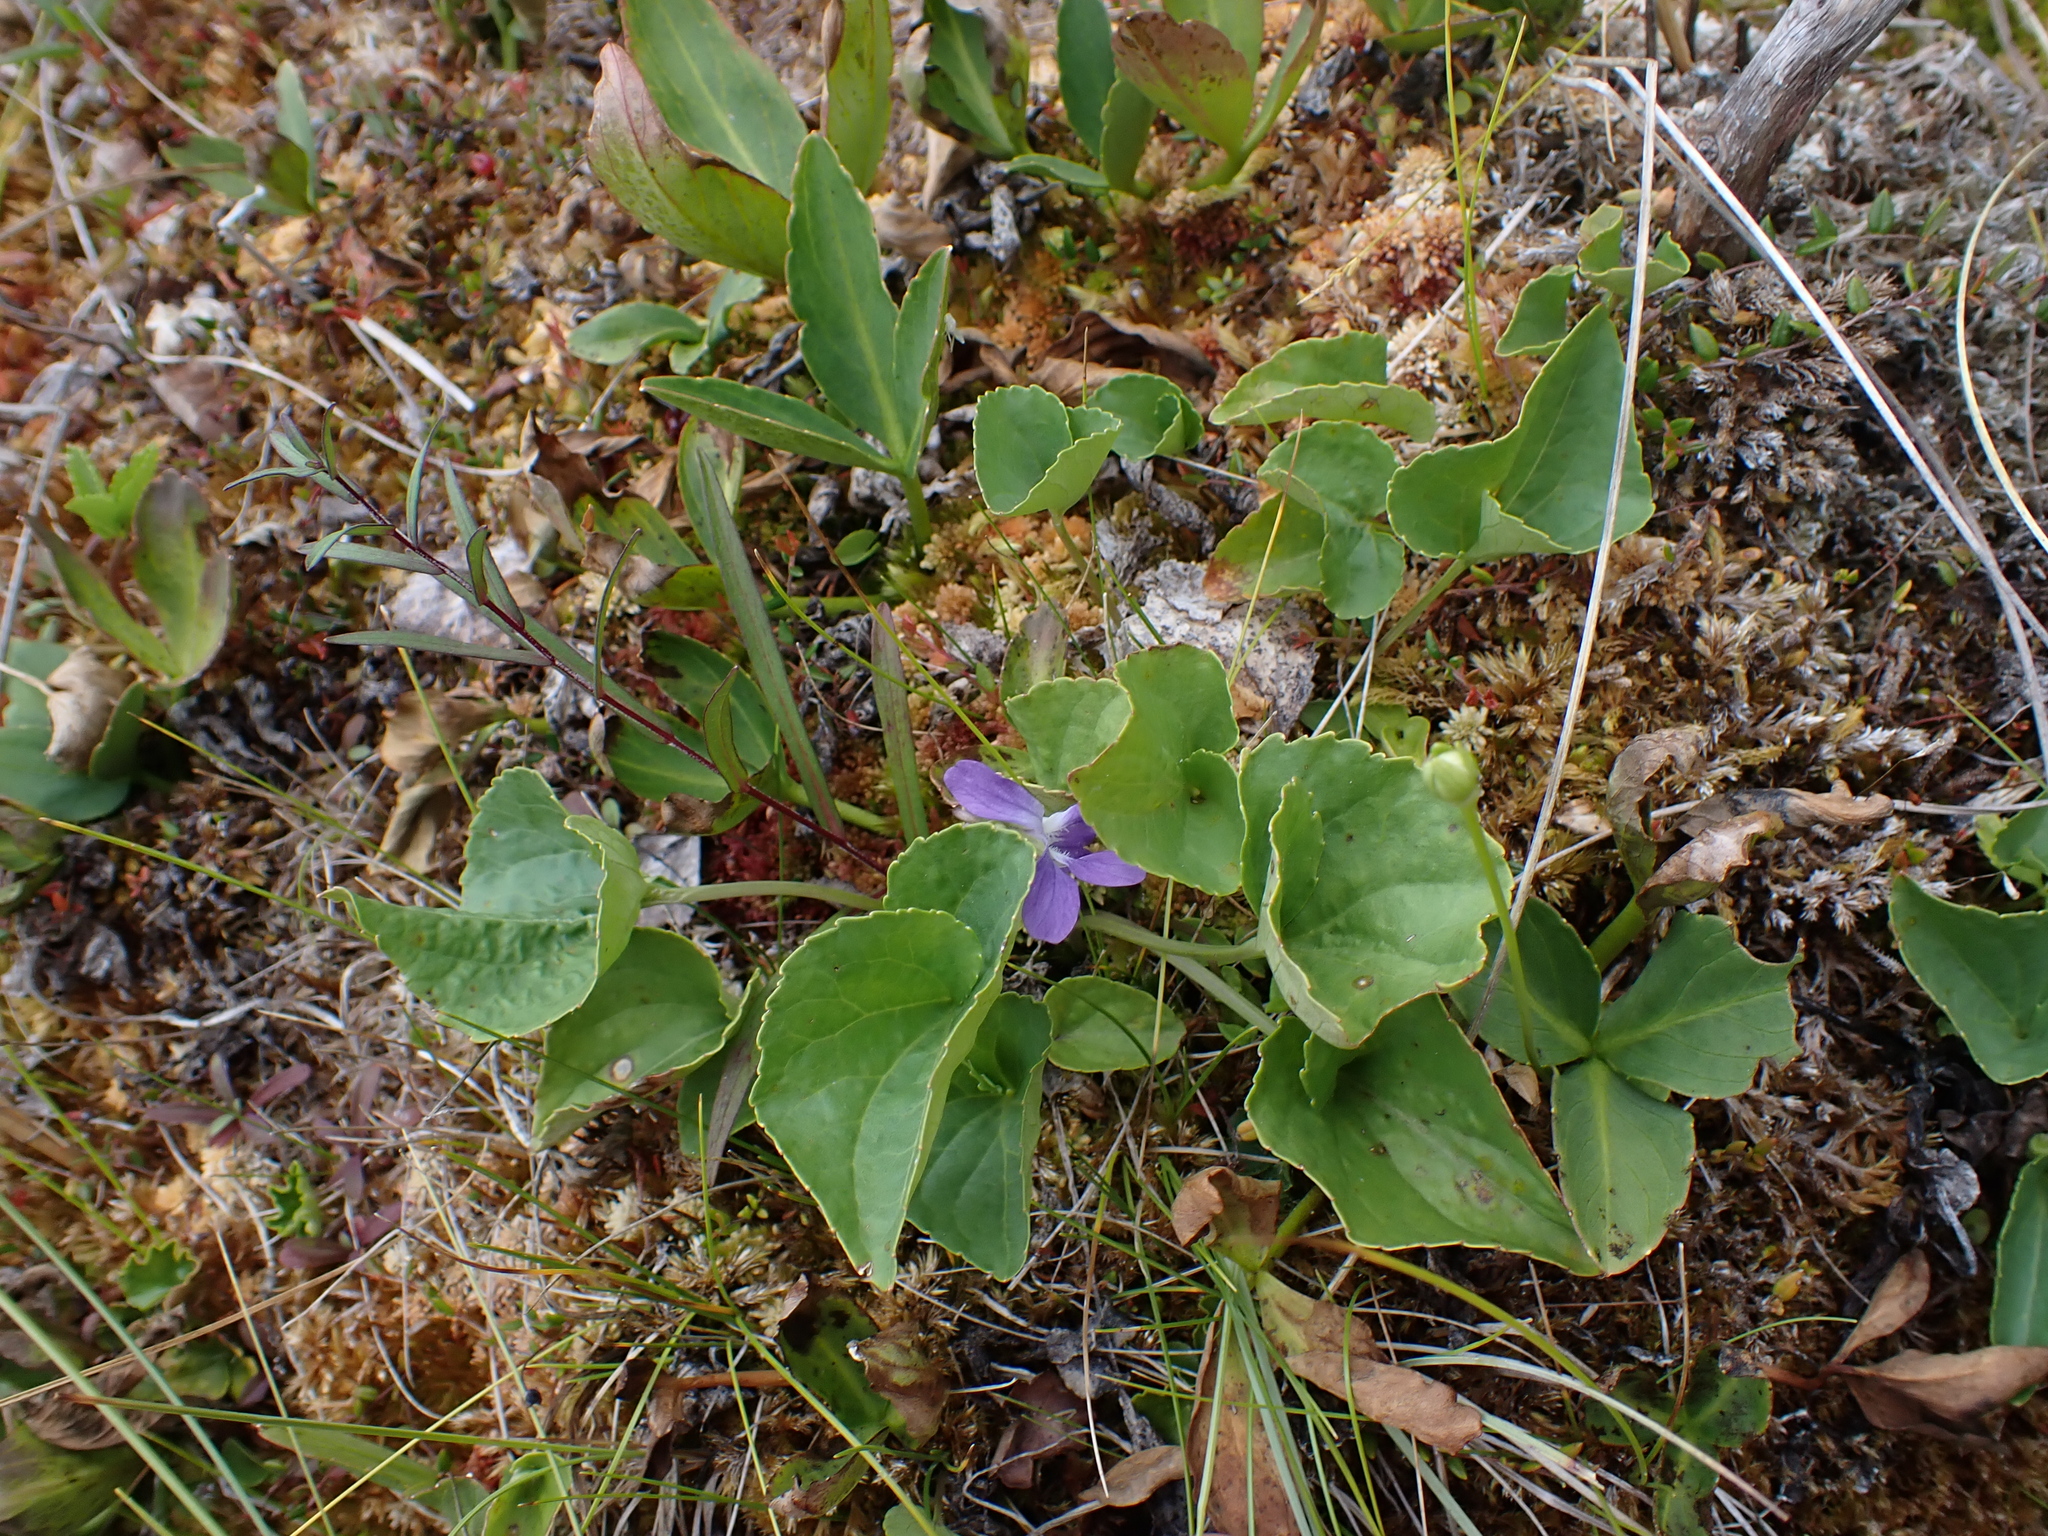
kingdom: Plantae
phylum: Tracheophyta
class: Magnoliopsida
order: Malpighiales
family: Violaceae
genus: Viola
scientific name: Viola nephrophylla
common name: Blue meadow violet
